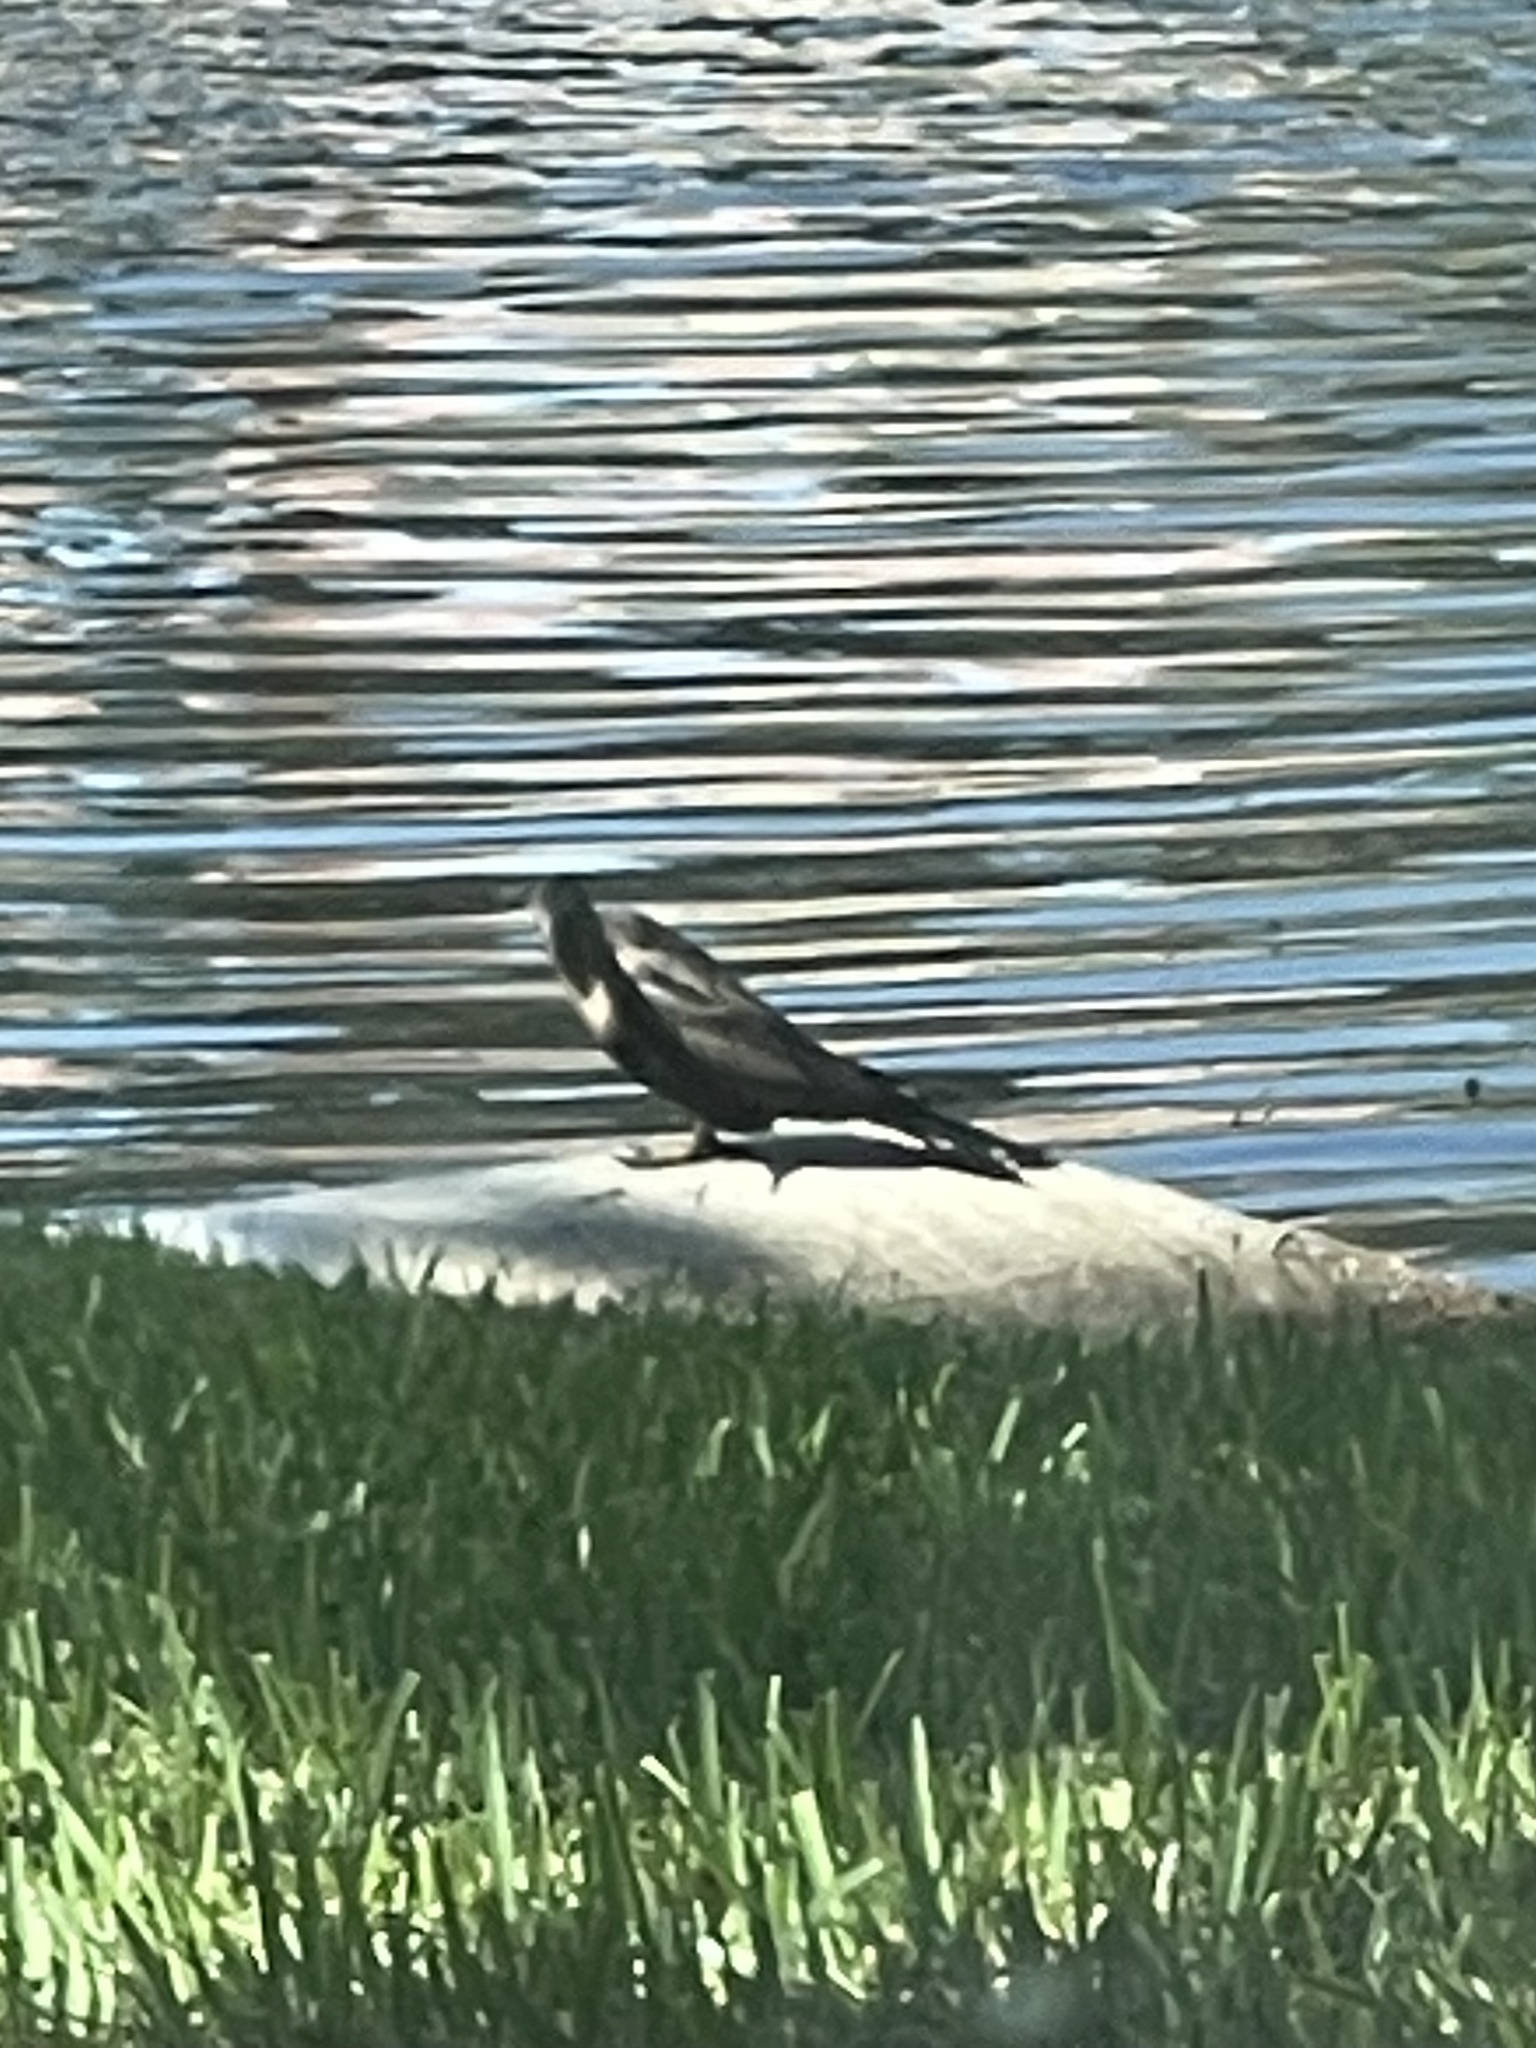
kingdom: Animalia
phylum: Chordata
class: Aves
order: Suliformes
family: Anhingidae
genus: Anhinga
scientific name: Anhinga anhinga
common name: Anhinga
